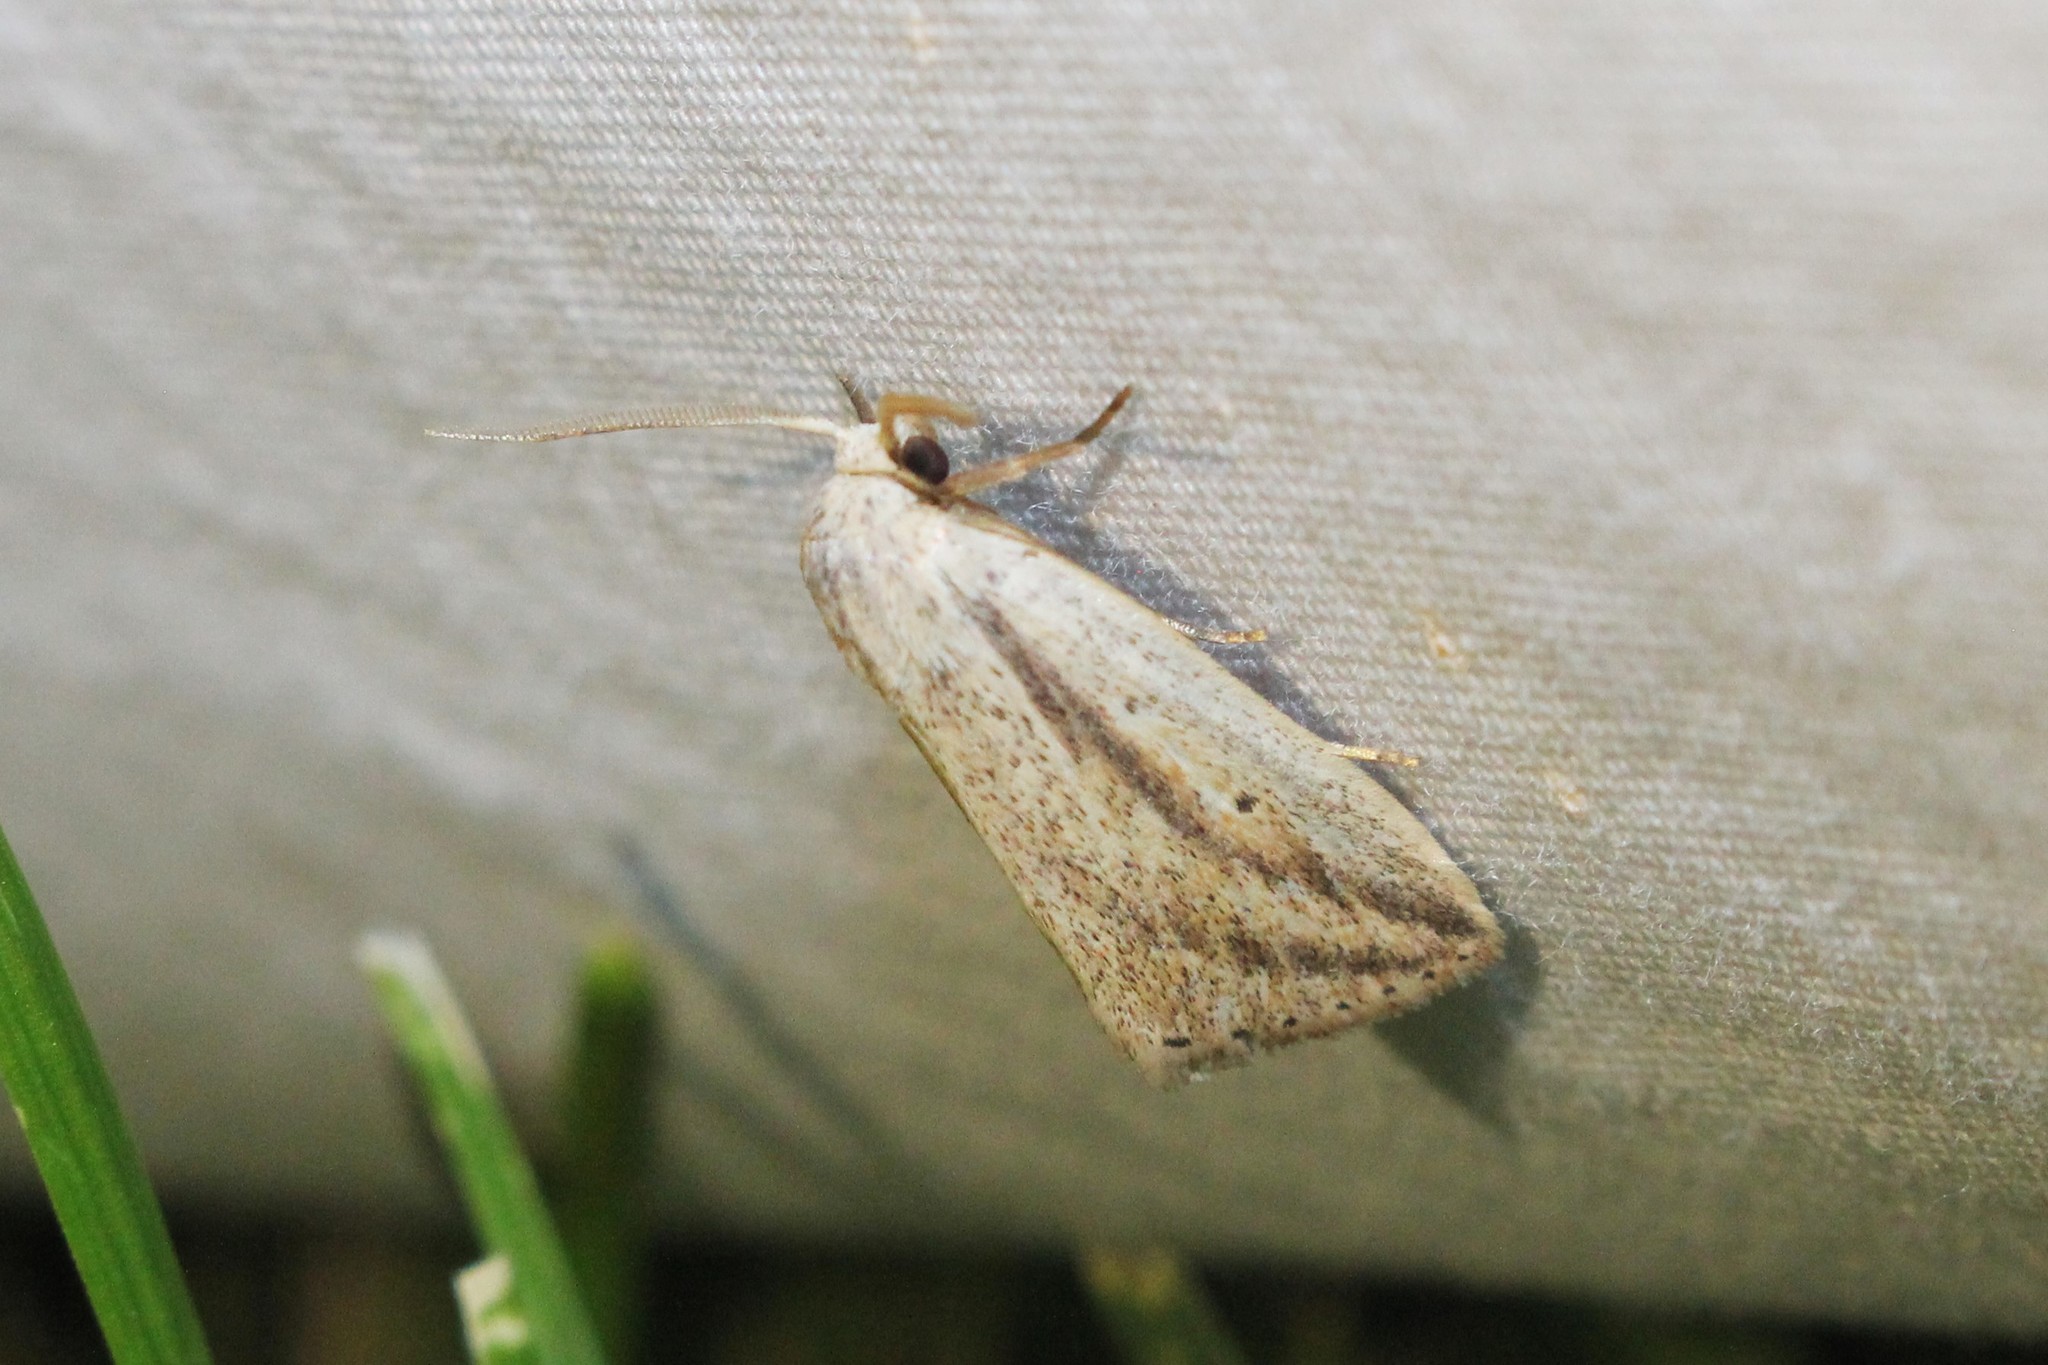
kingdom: Animalia
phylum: Arthropoda
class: Insecta
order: Lepidoptera
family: Noctuidae
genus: Amolita
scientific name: Amolita fessa
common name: Feeble grass moth
